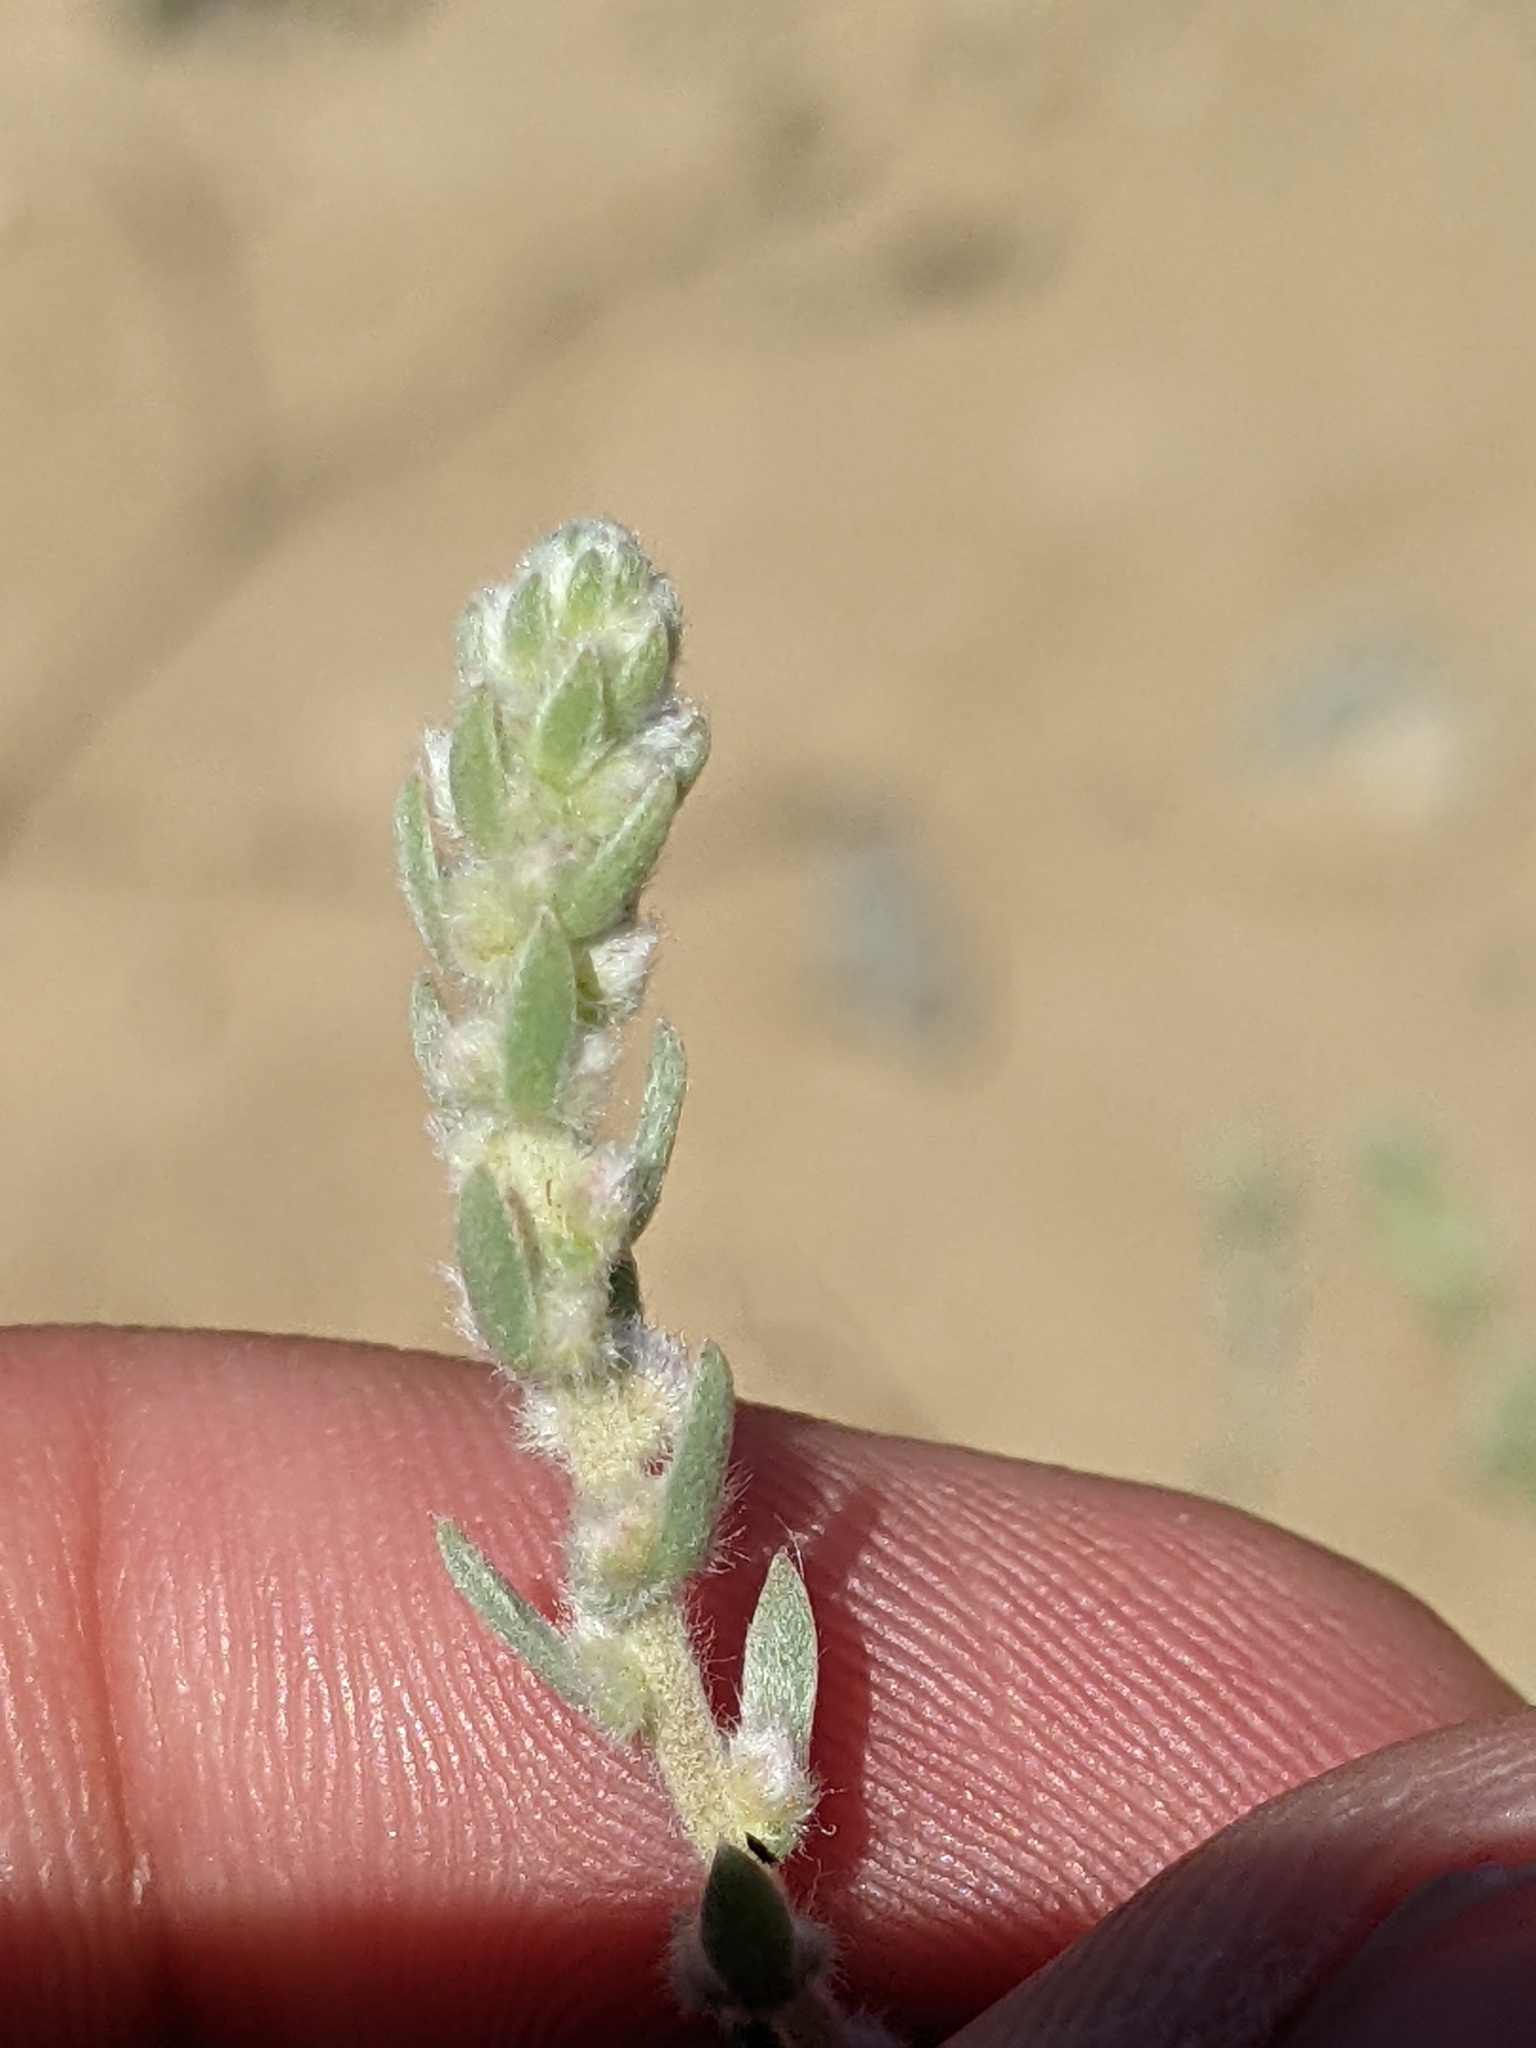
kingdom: Plantae
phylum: Tracheophyta
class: Magnoliopsida
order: Caryophyllales
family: Amaranthaceae
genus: Bassia
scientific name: Bassia hyssopifolia
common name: Fivehorn smotherweed
